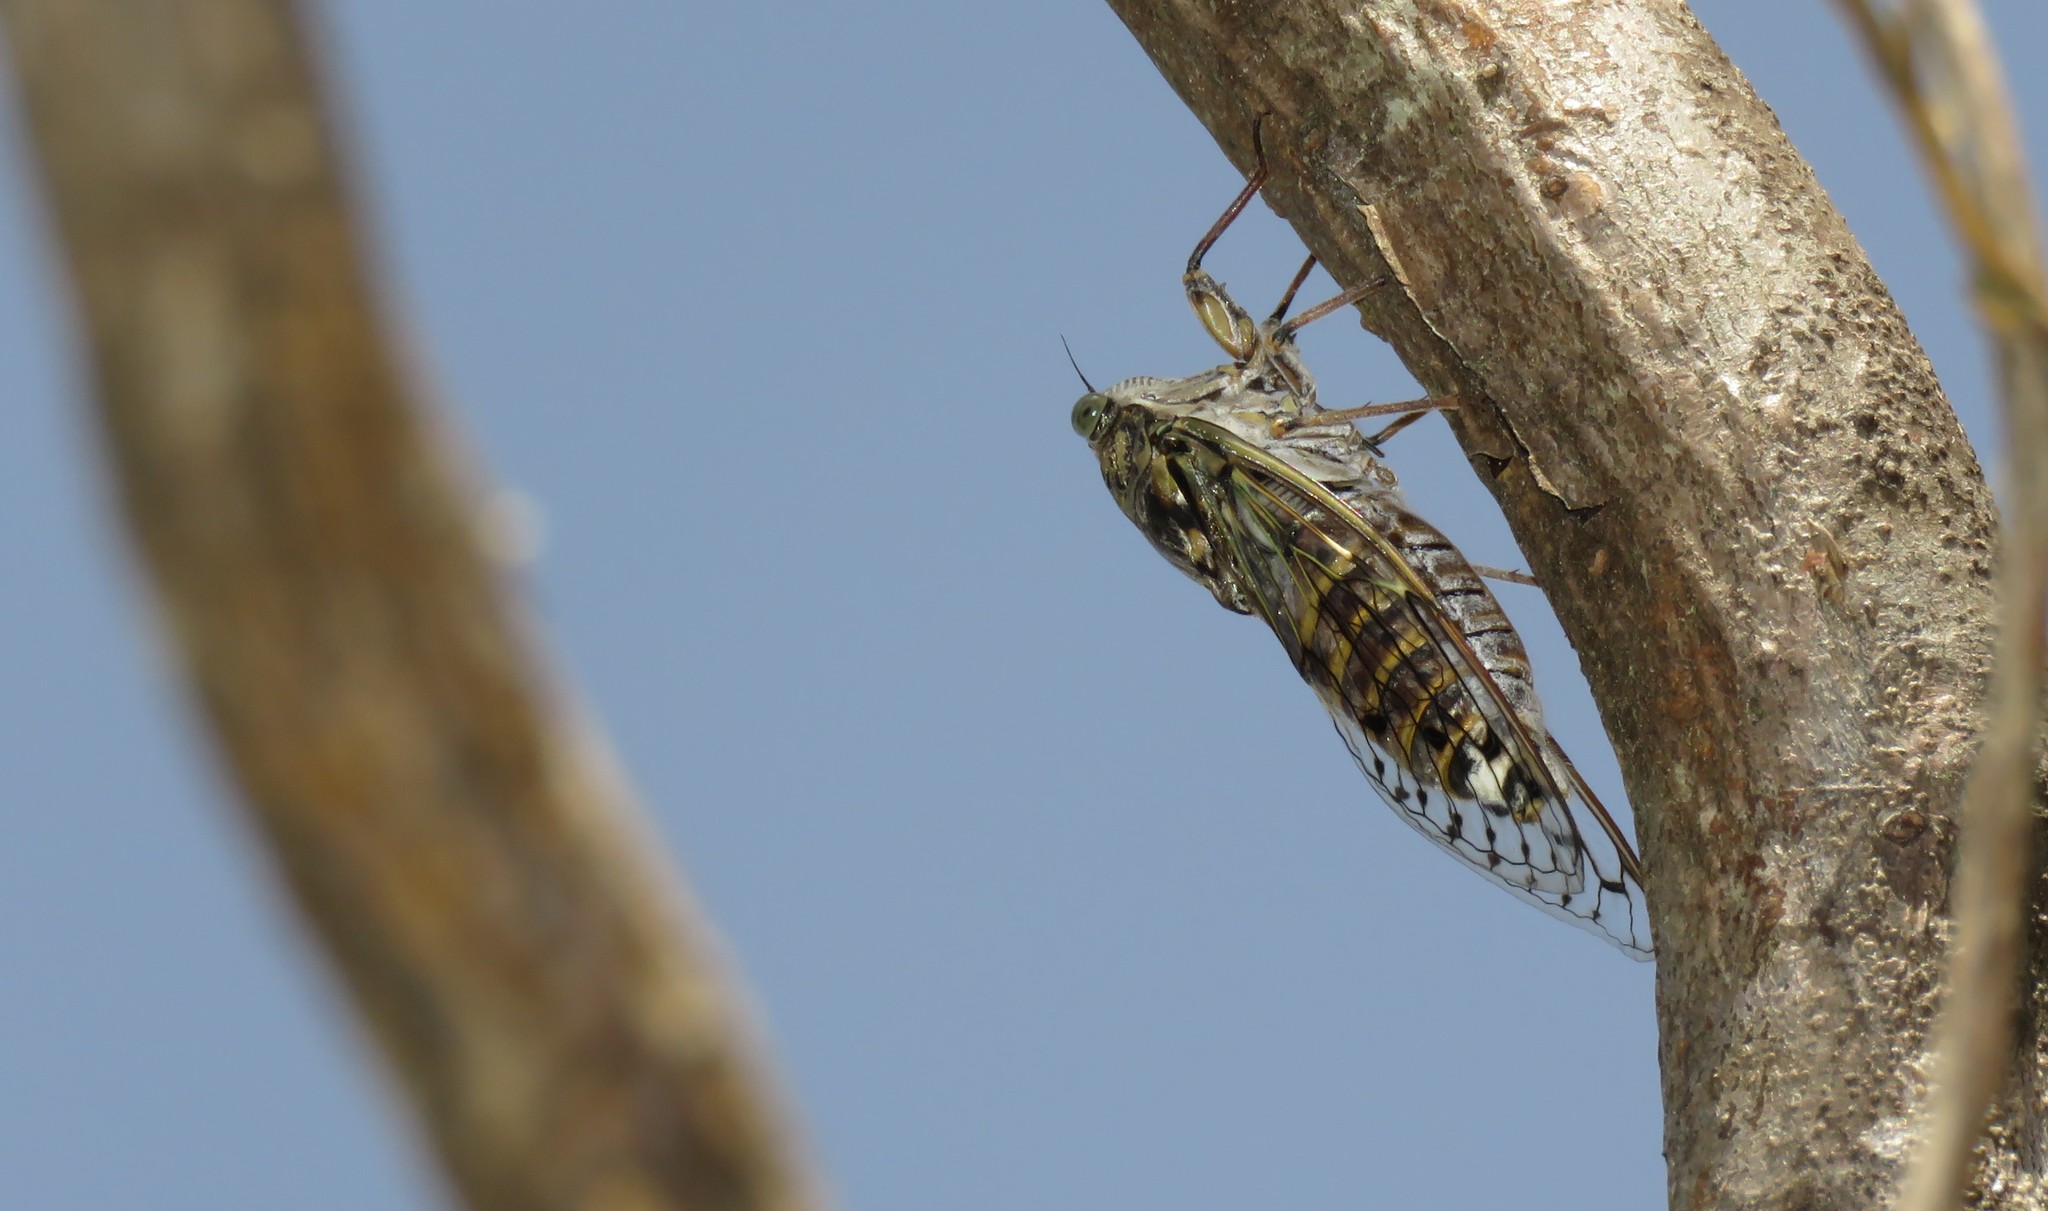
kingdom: Animalia
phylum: Arthropoda
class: Insecta
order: Hemiptera
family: Cicadidae
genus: Cicada
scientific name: Cicada orni
